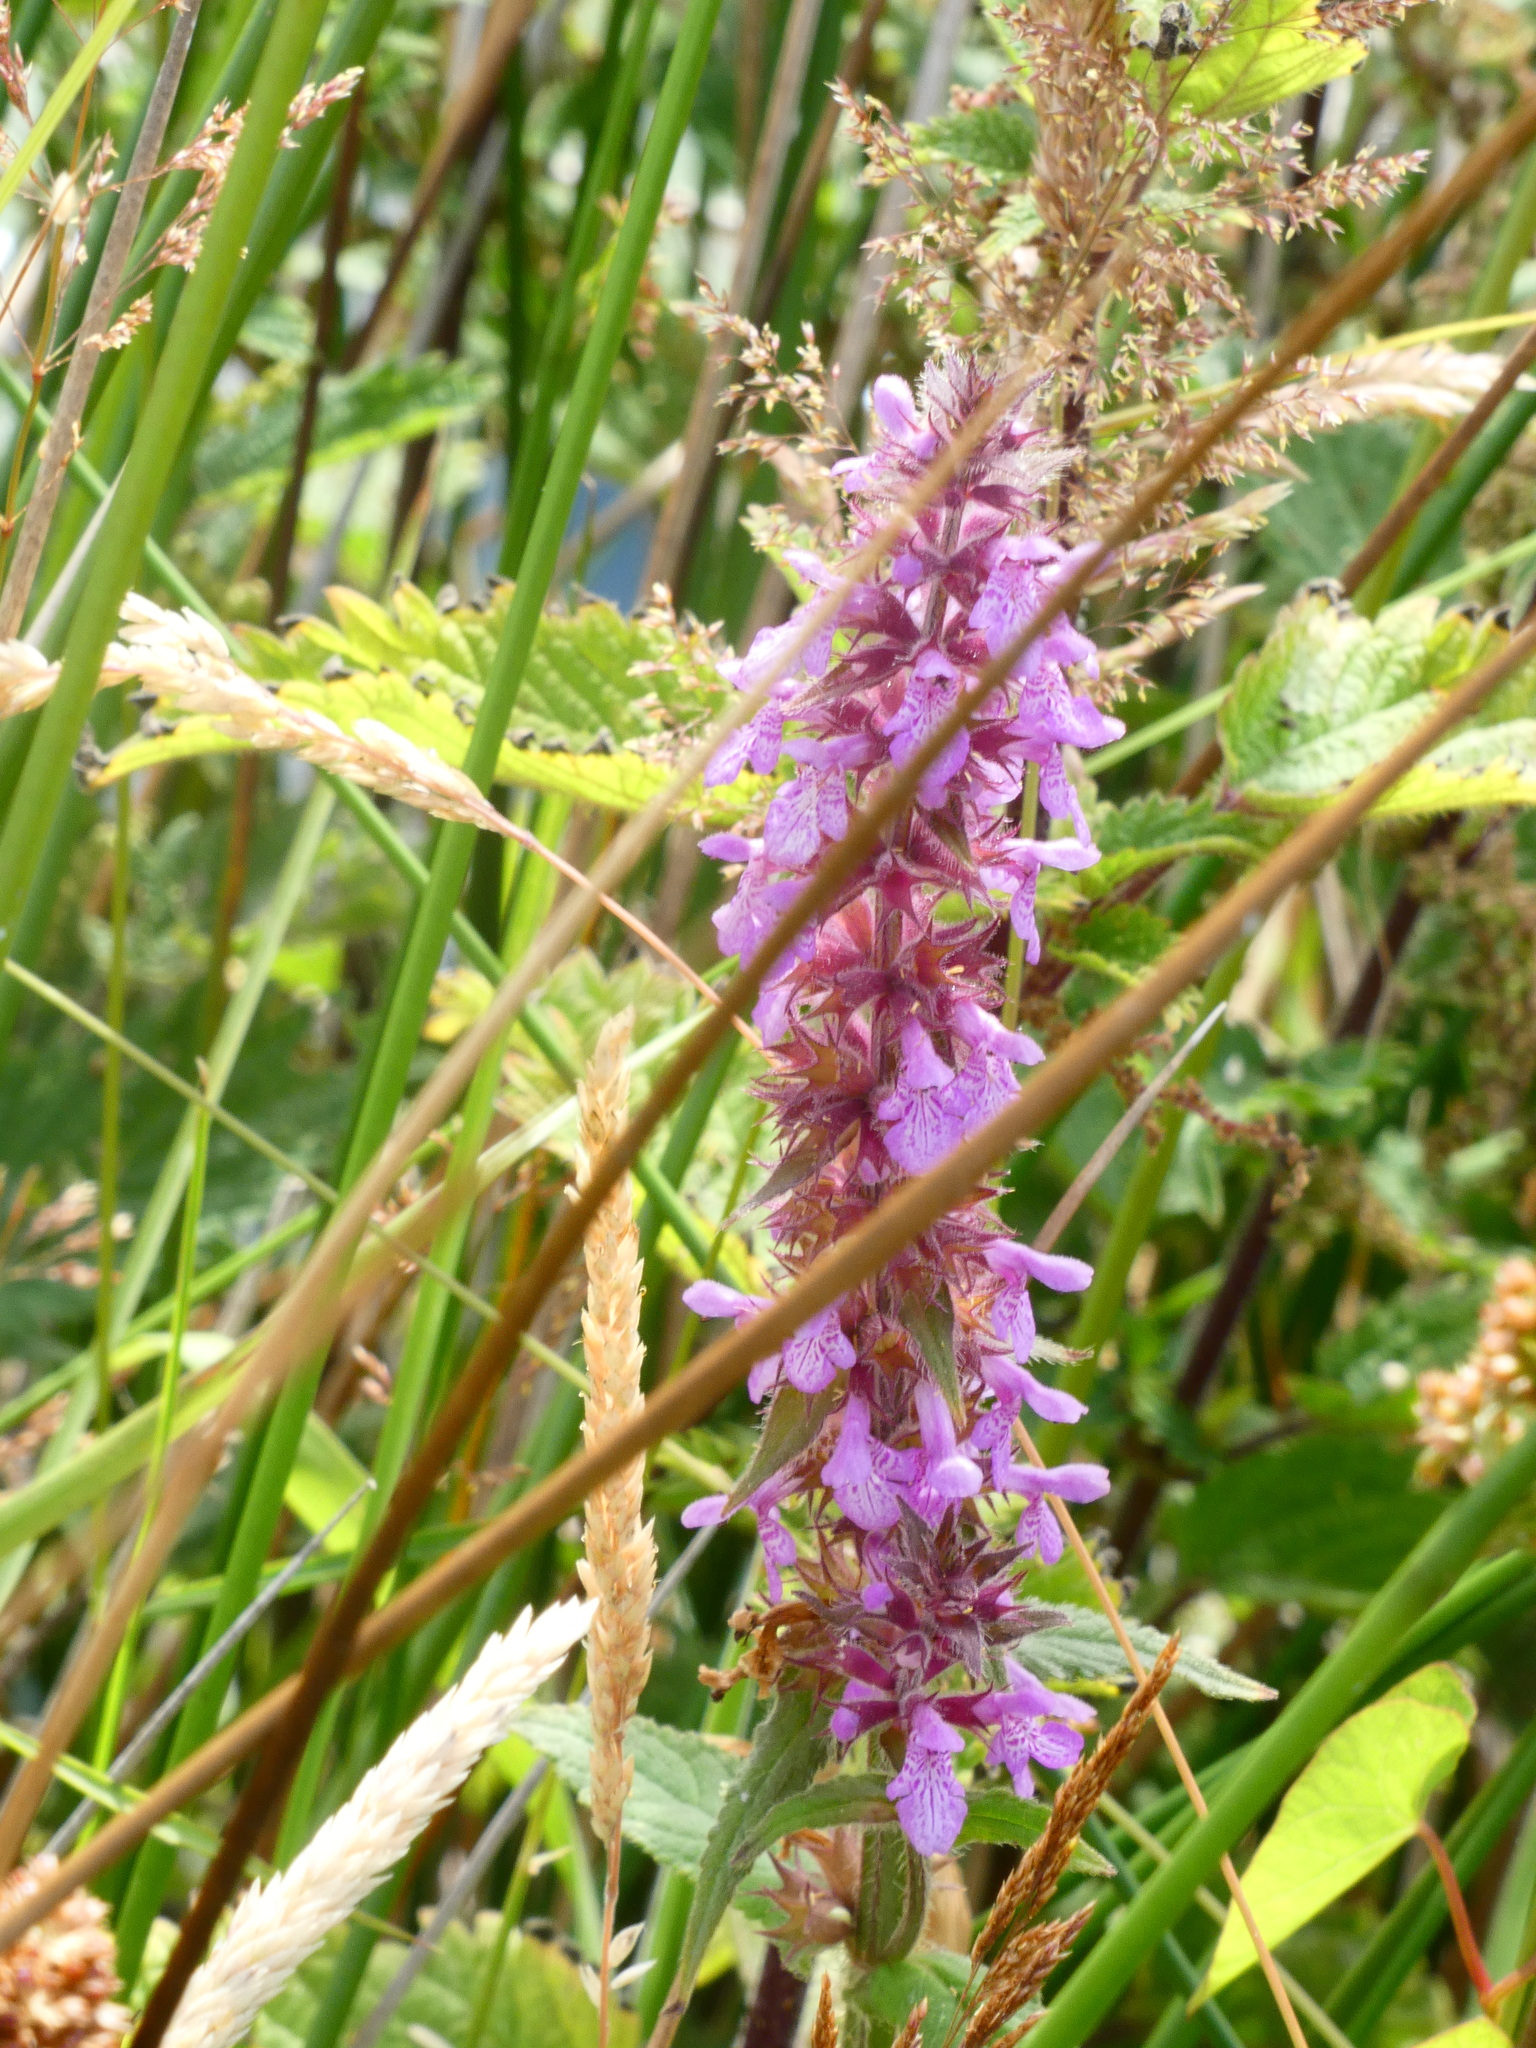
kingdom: Plantae
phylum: Tracheophyta
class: Magnoliopsida
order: Lamiales
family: Lamiaceae
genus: Stachys
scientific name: Stachys palustris
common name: Marsh woundwort
